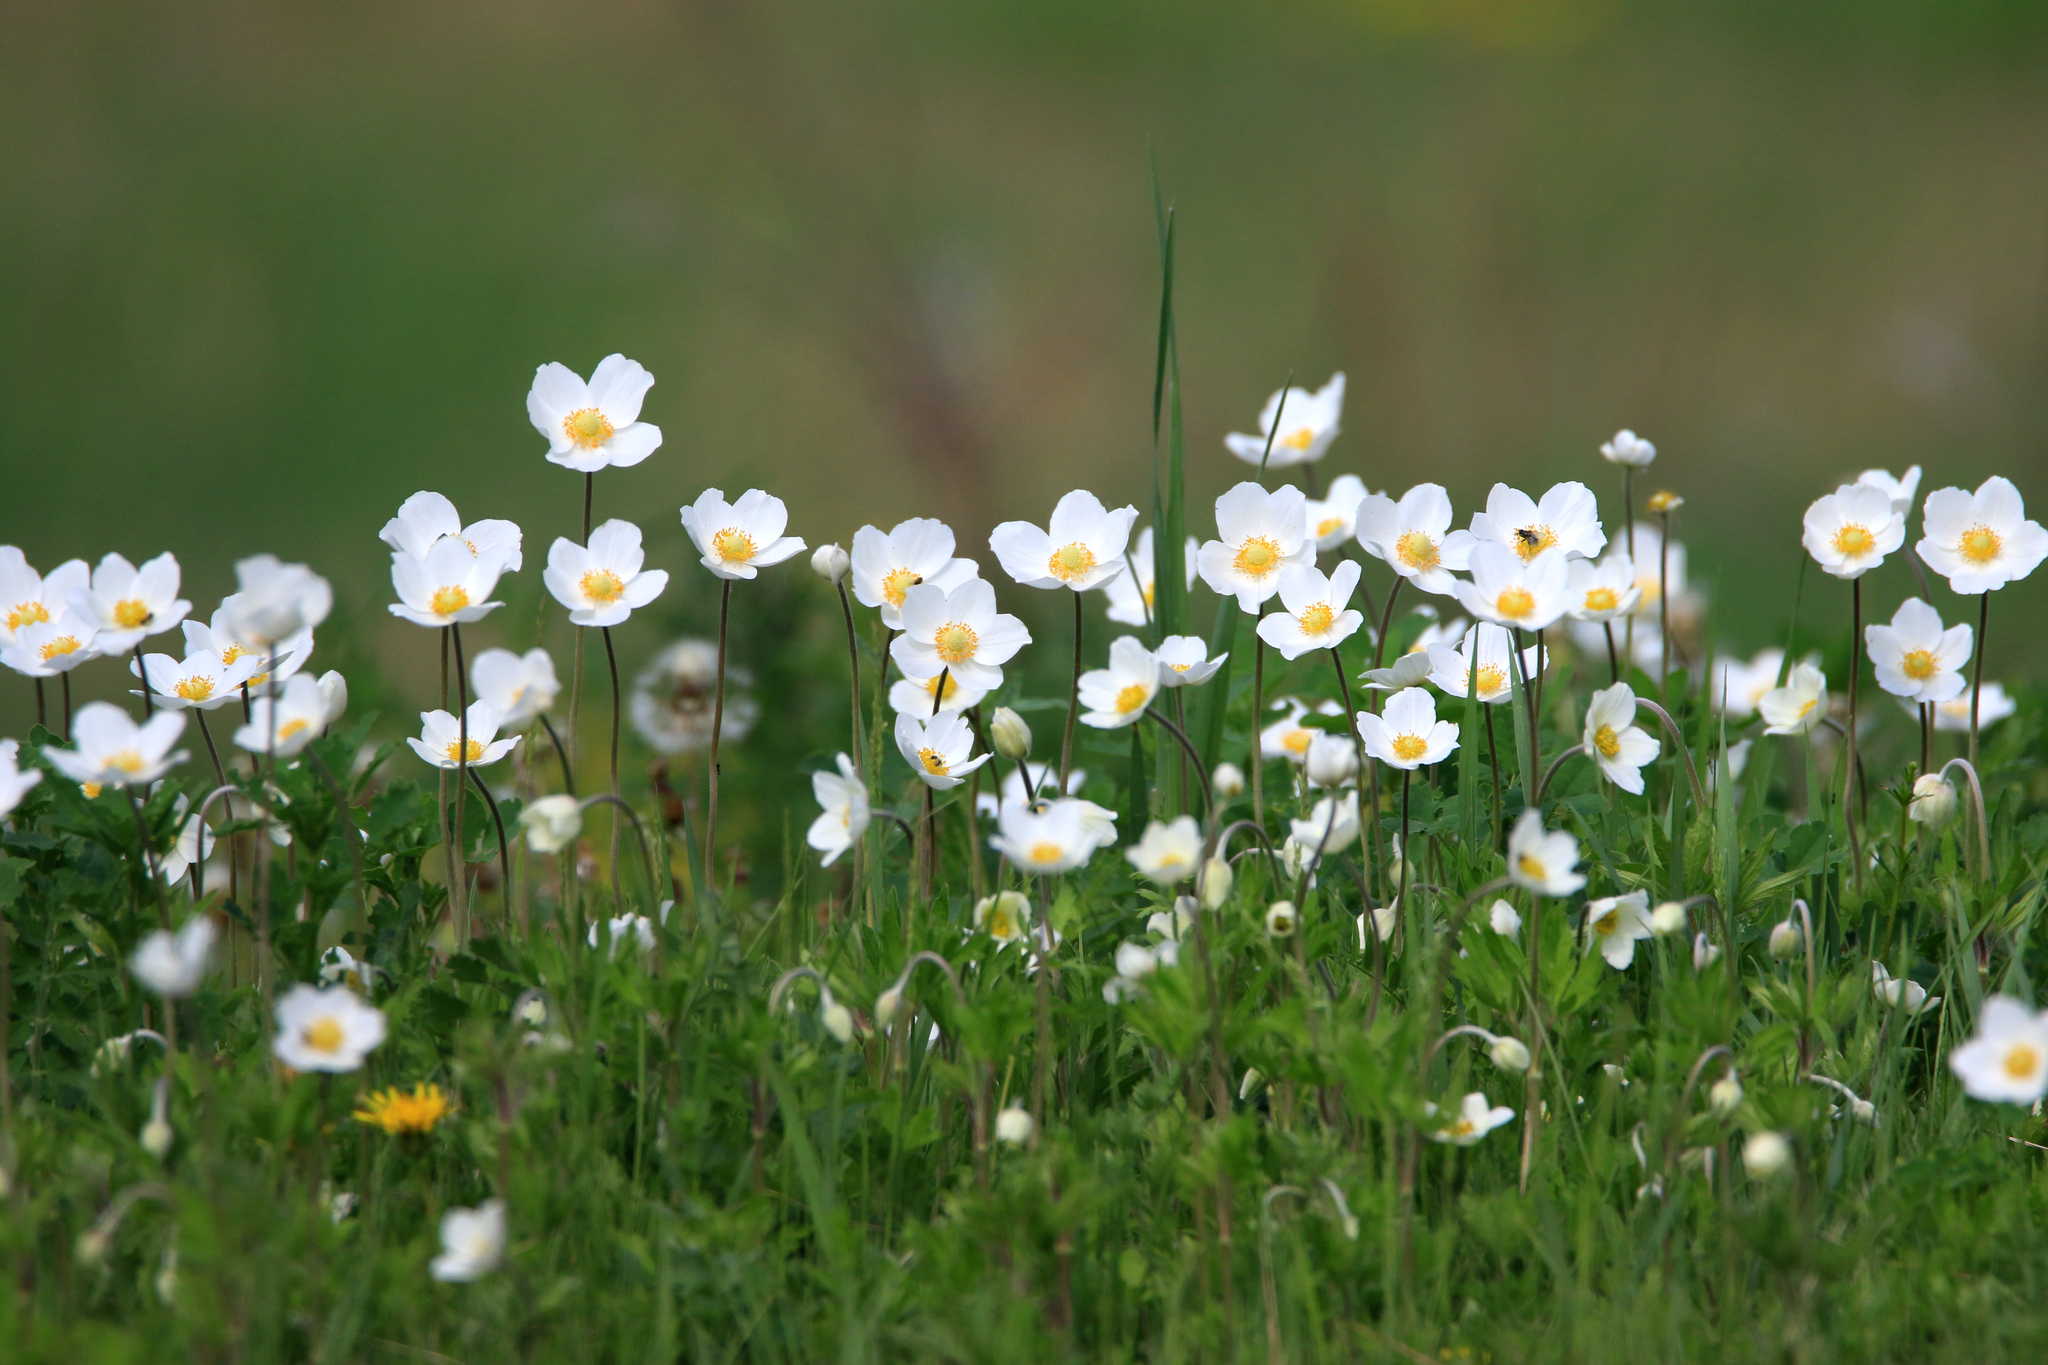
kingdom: Plantae
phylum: Tracheophyta
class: Magnoliopsida
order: Ranunculales
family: Ranunculaceae
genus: Anemone
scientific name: Anemone sylvestris
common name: Snowdrop anemone
